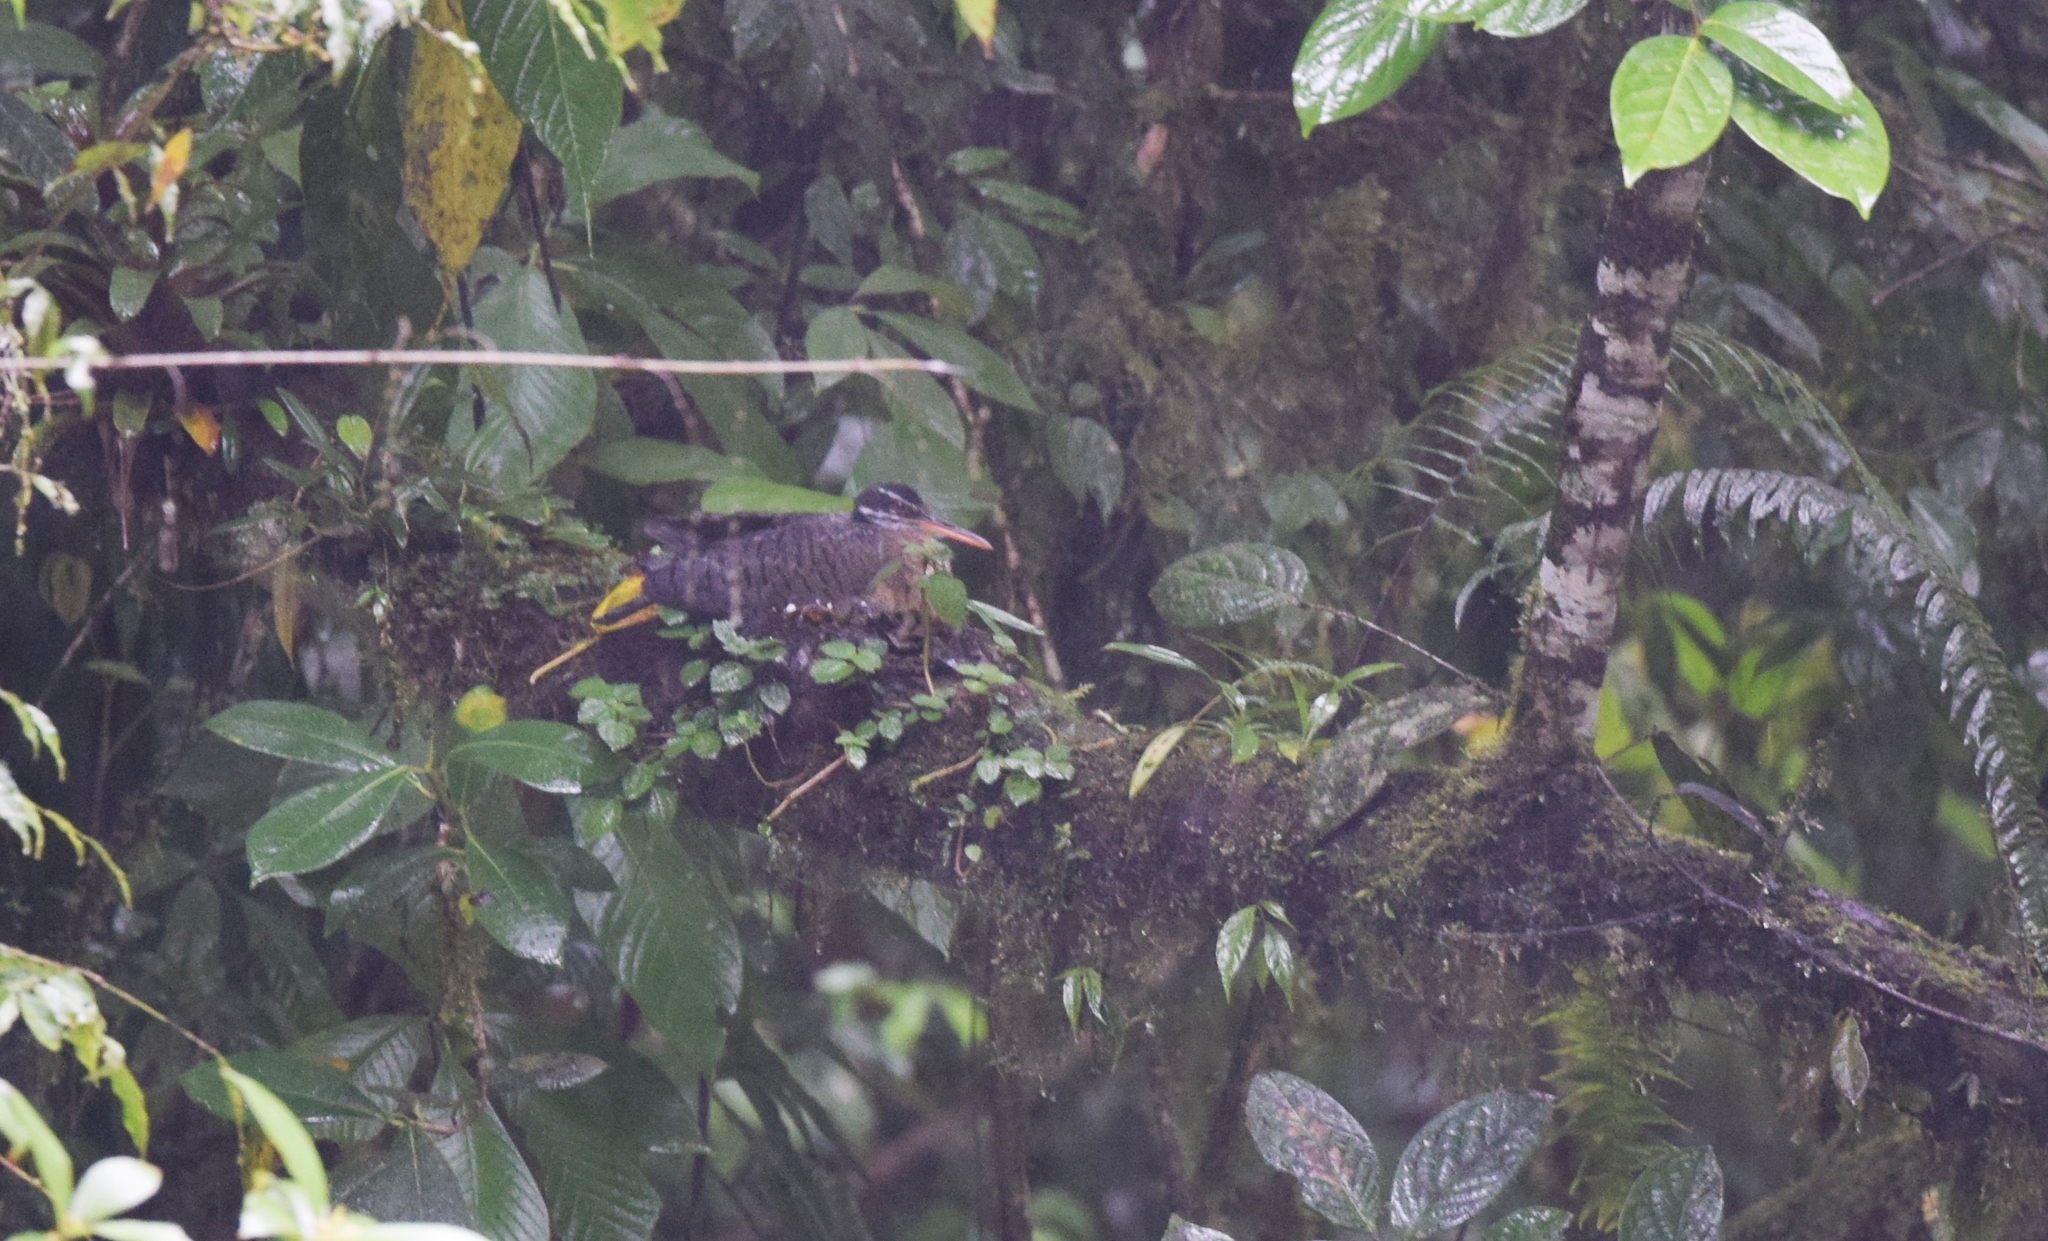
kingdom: Animalia
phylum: Chordata
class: Aves
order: Eurypygiformes
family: Eurypygidae
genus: Eurypyga
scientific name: Eurypyga helias
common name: Sunbittern
